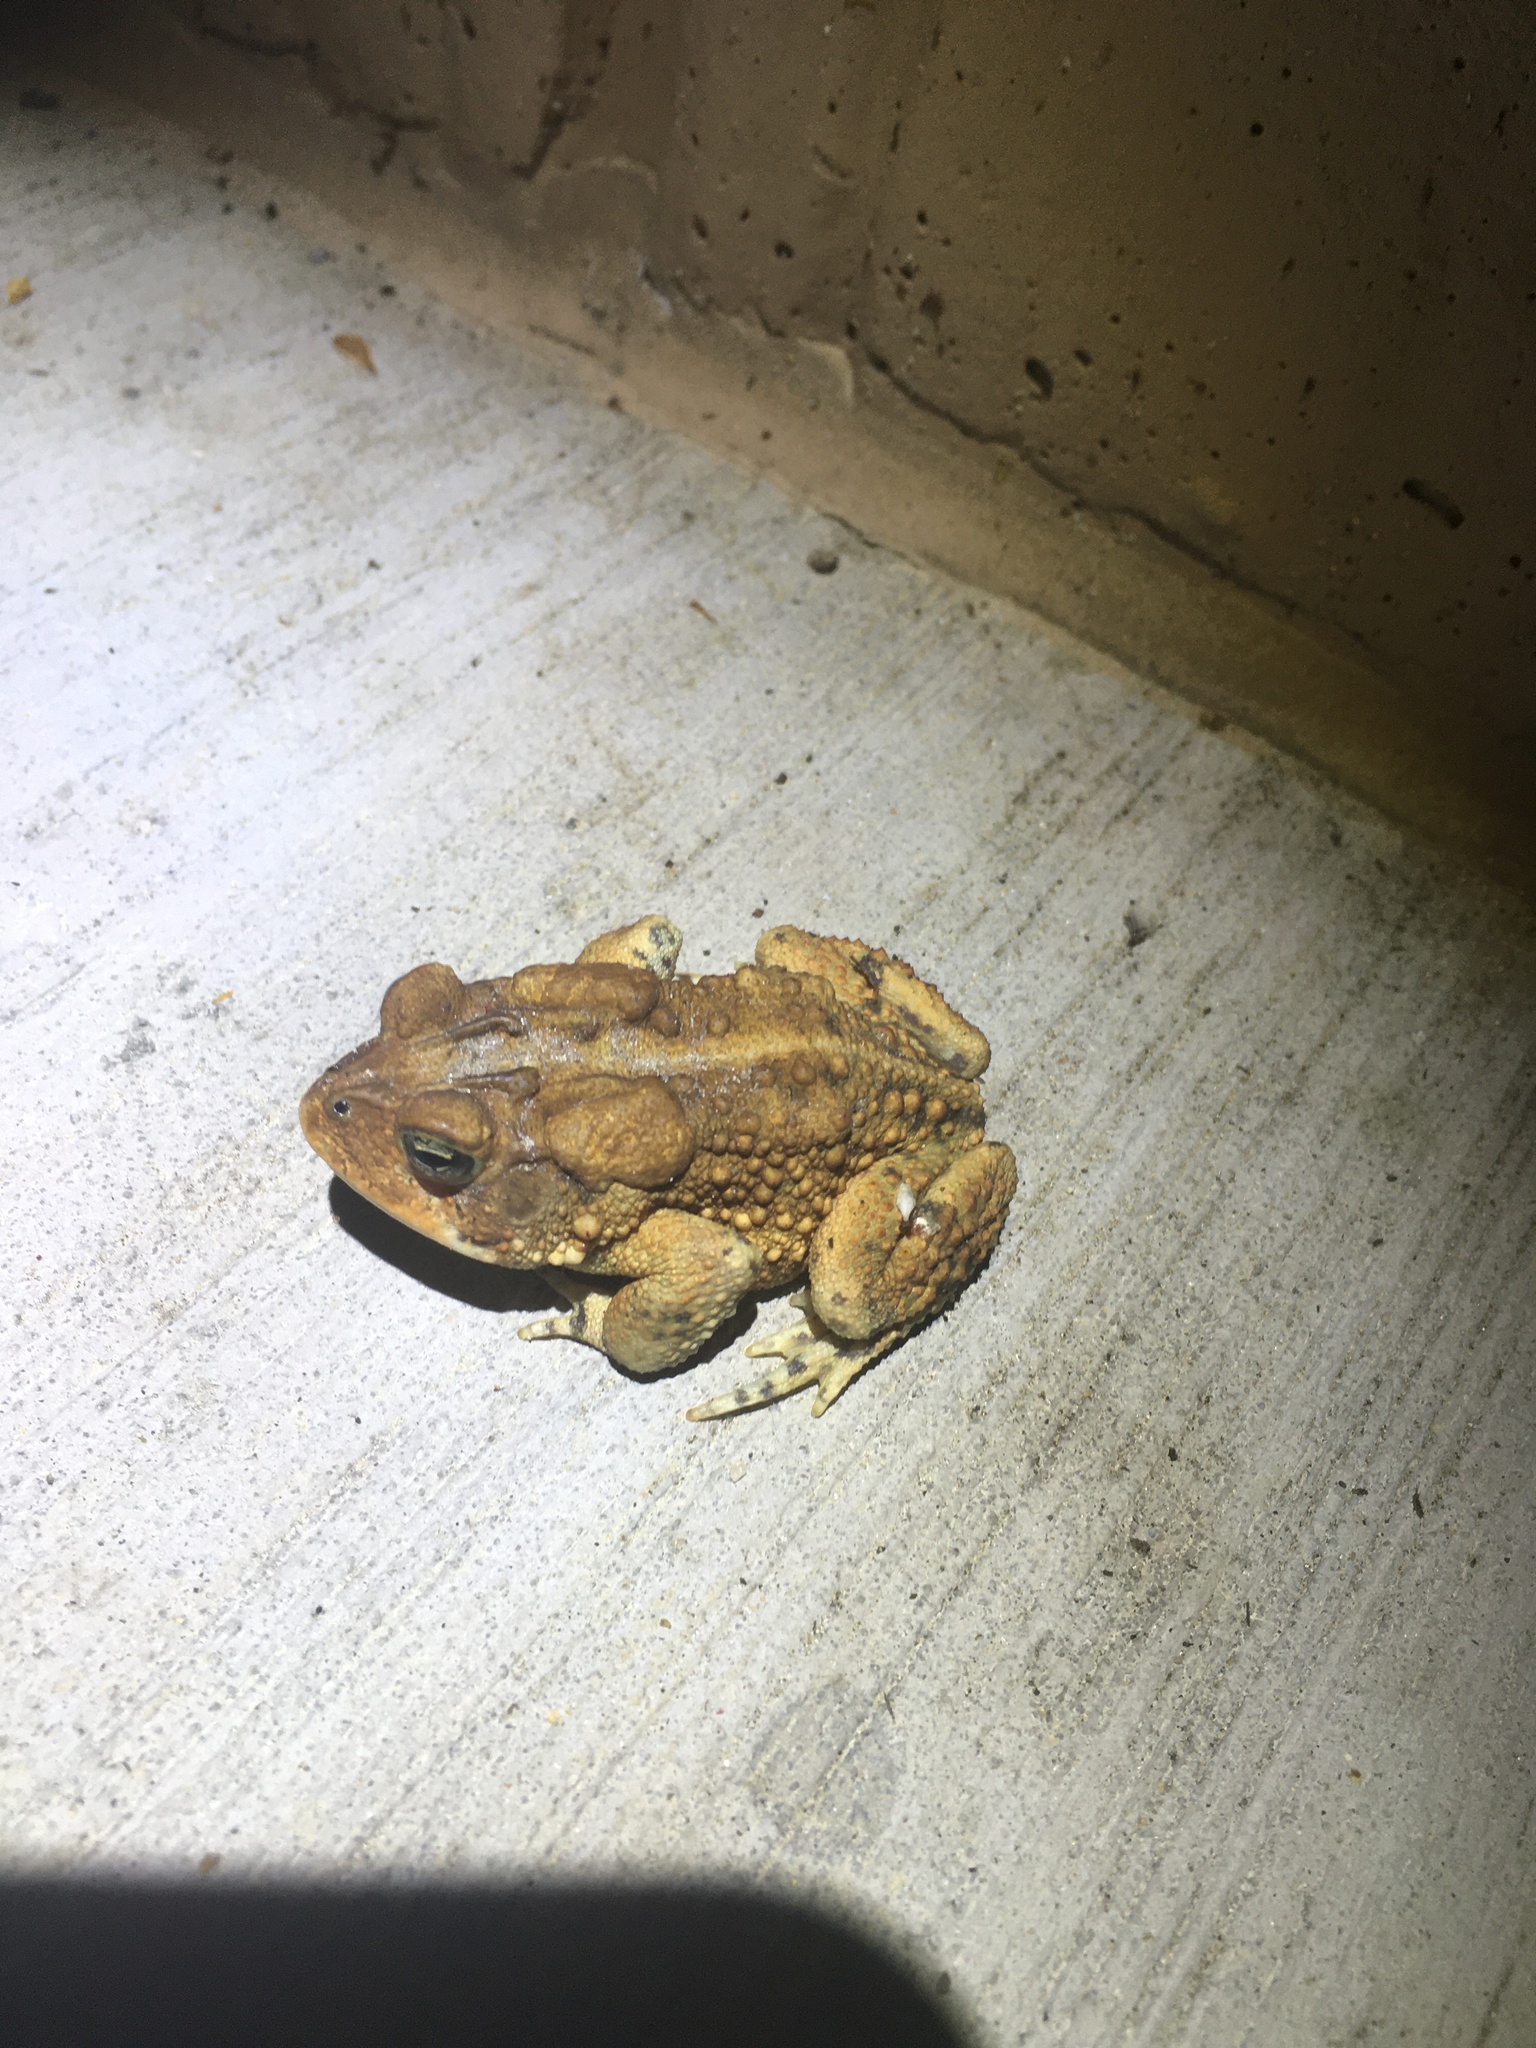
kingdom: Animalia
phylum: Chordata
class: Amphibia
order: Anura
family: Bufonidae
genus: Anaxyrus
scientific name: Anaxyrus terrestris
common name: Southern toad
